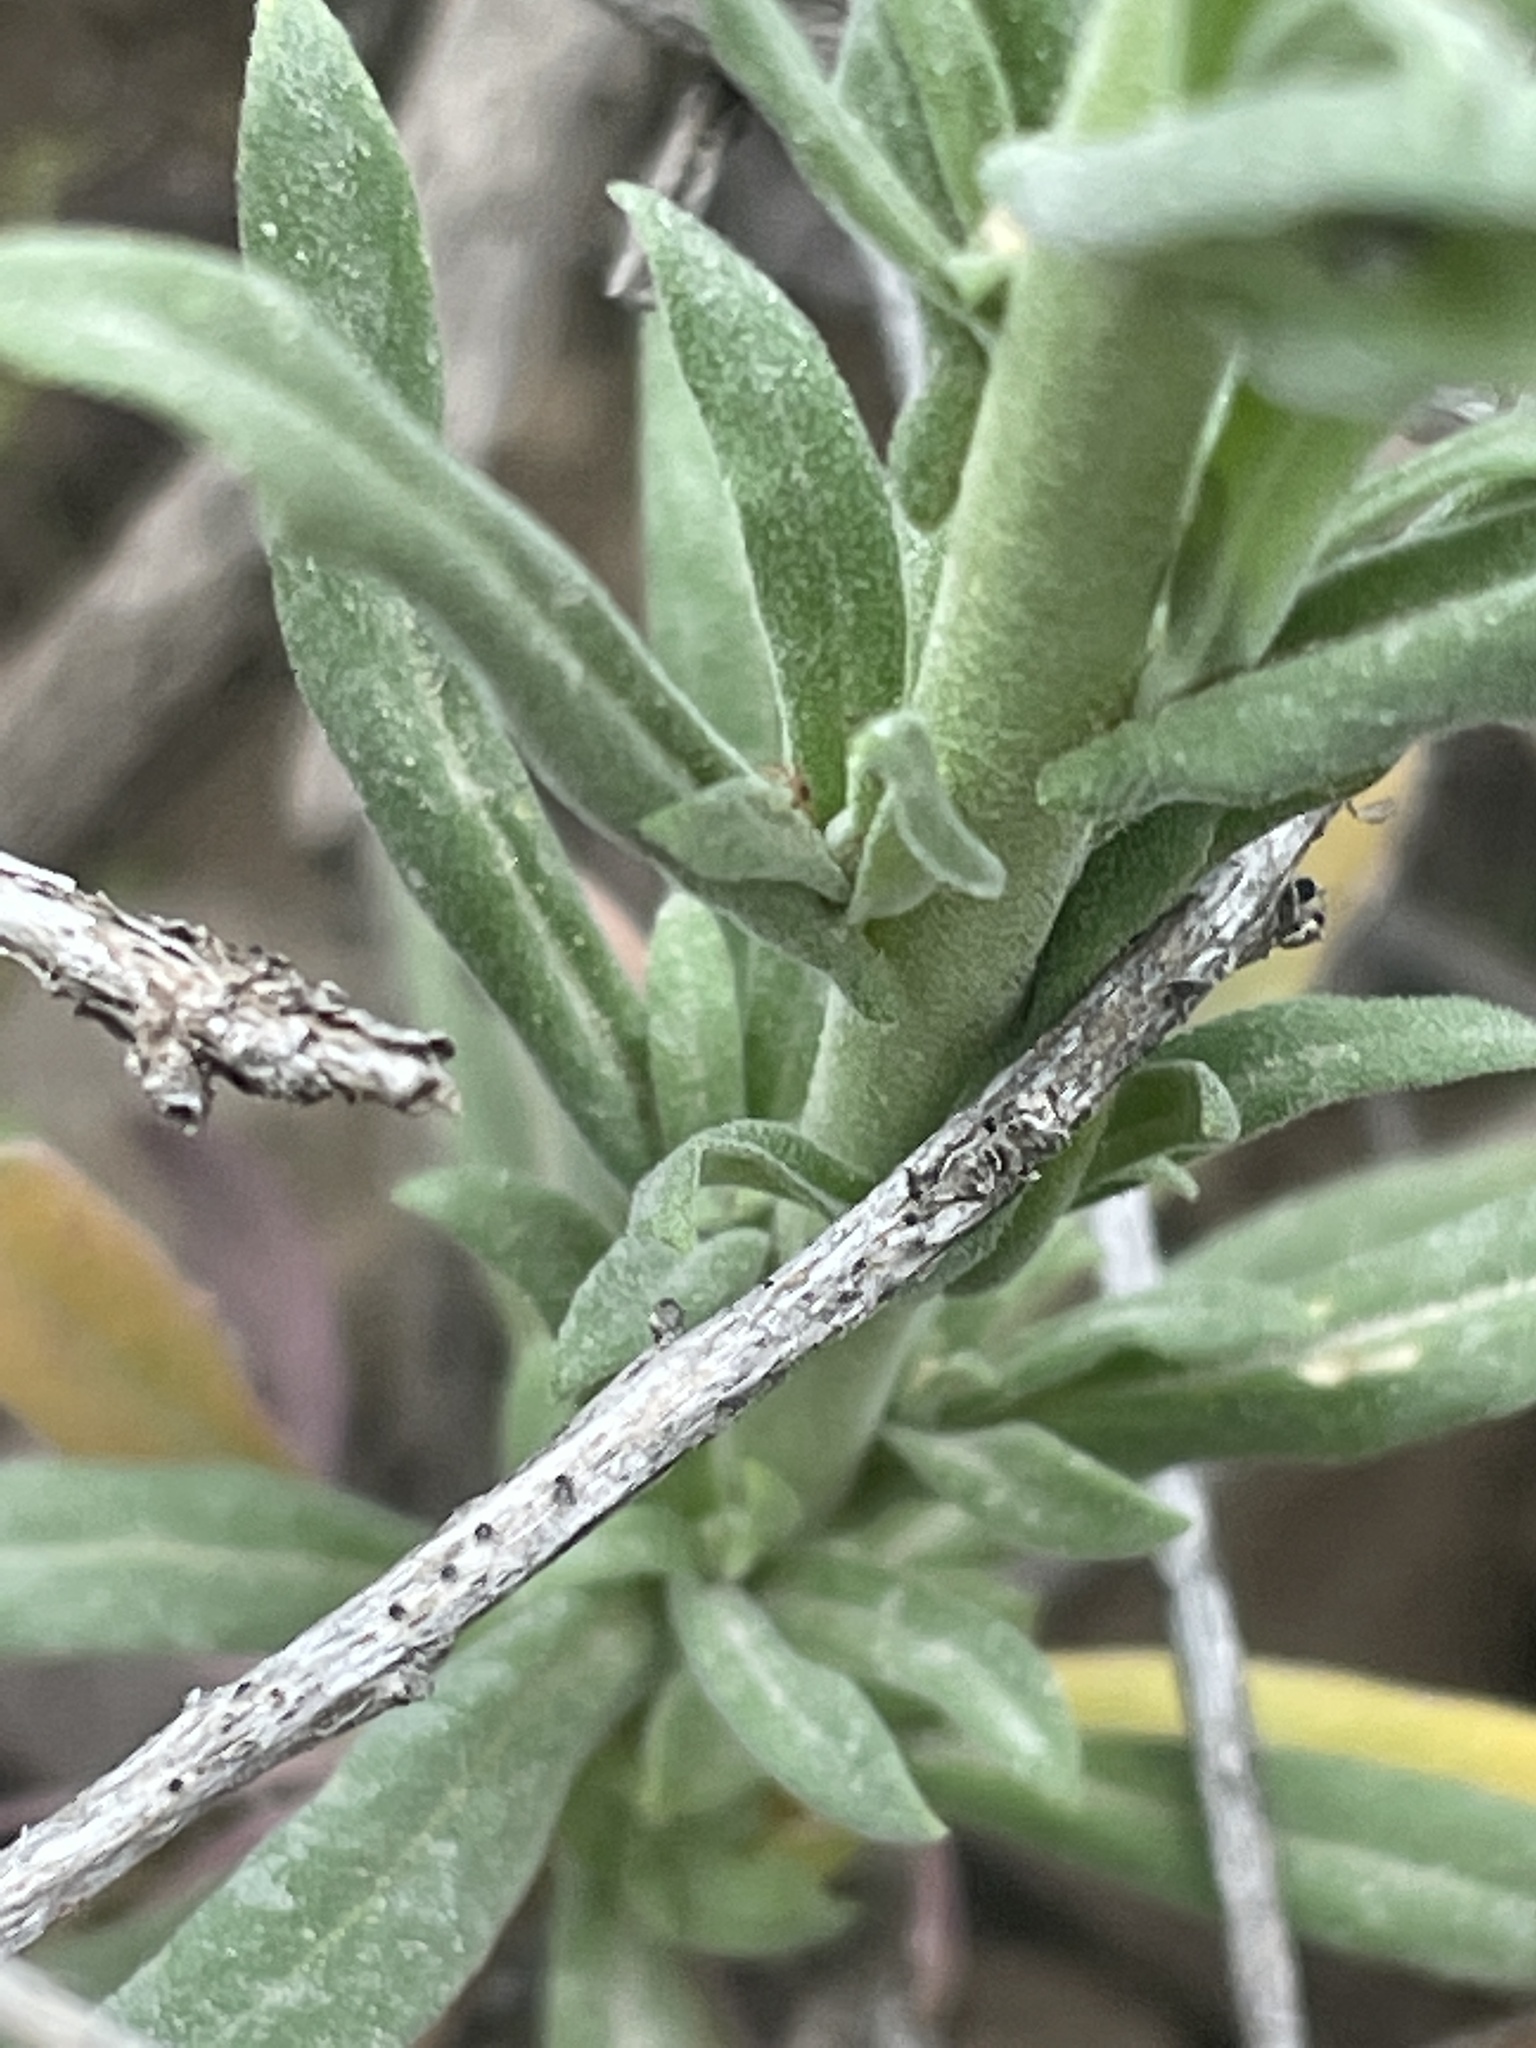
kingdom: Plantae
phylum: Tracheophyta
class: Magnoliopsida
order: Brassicales
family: Brassicaceae
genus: Boechera
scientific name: Boechera retrofracta
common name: Dangling suncress
